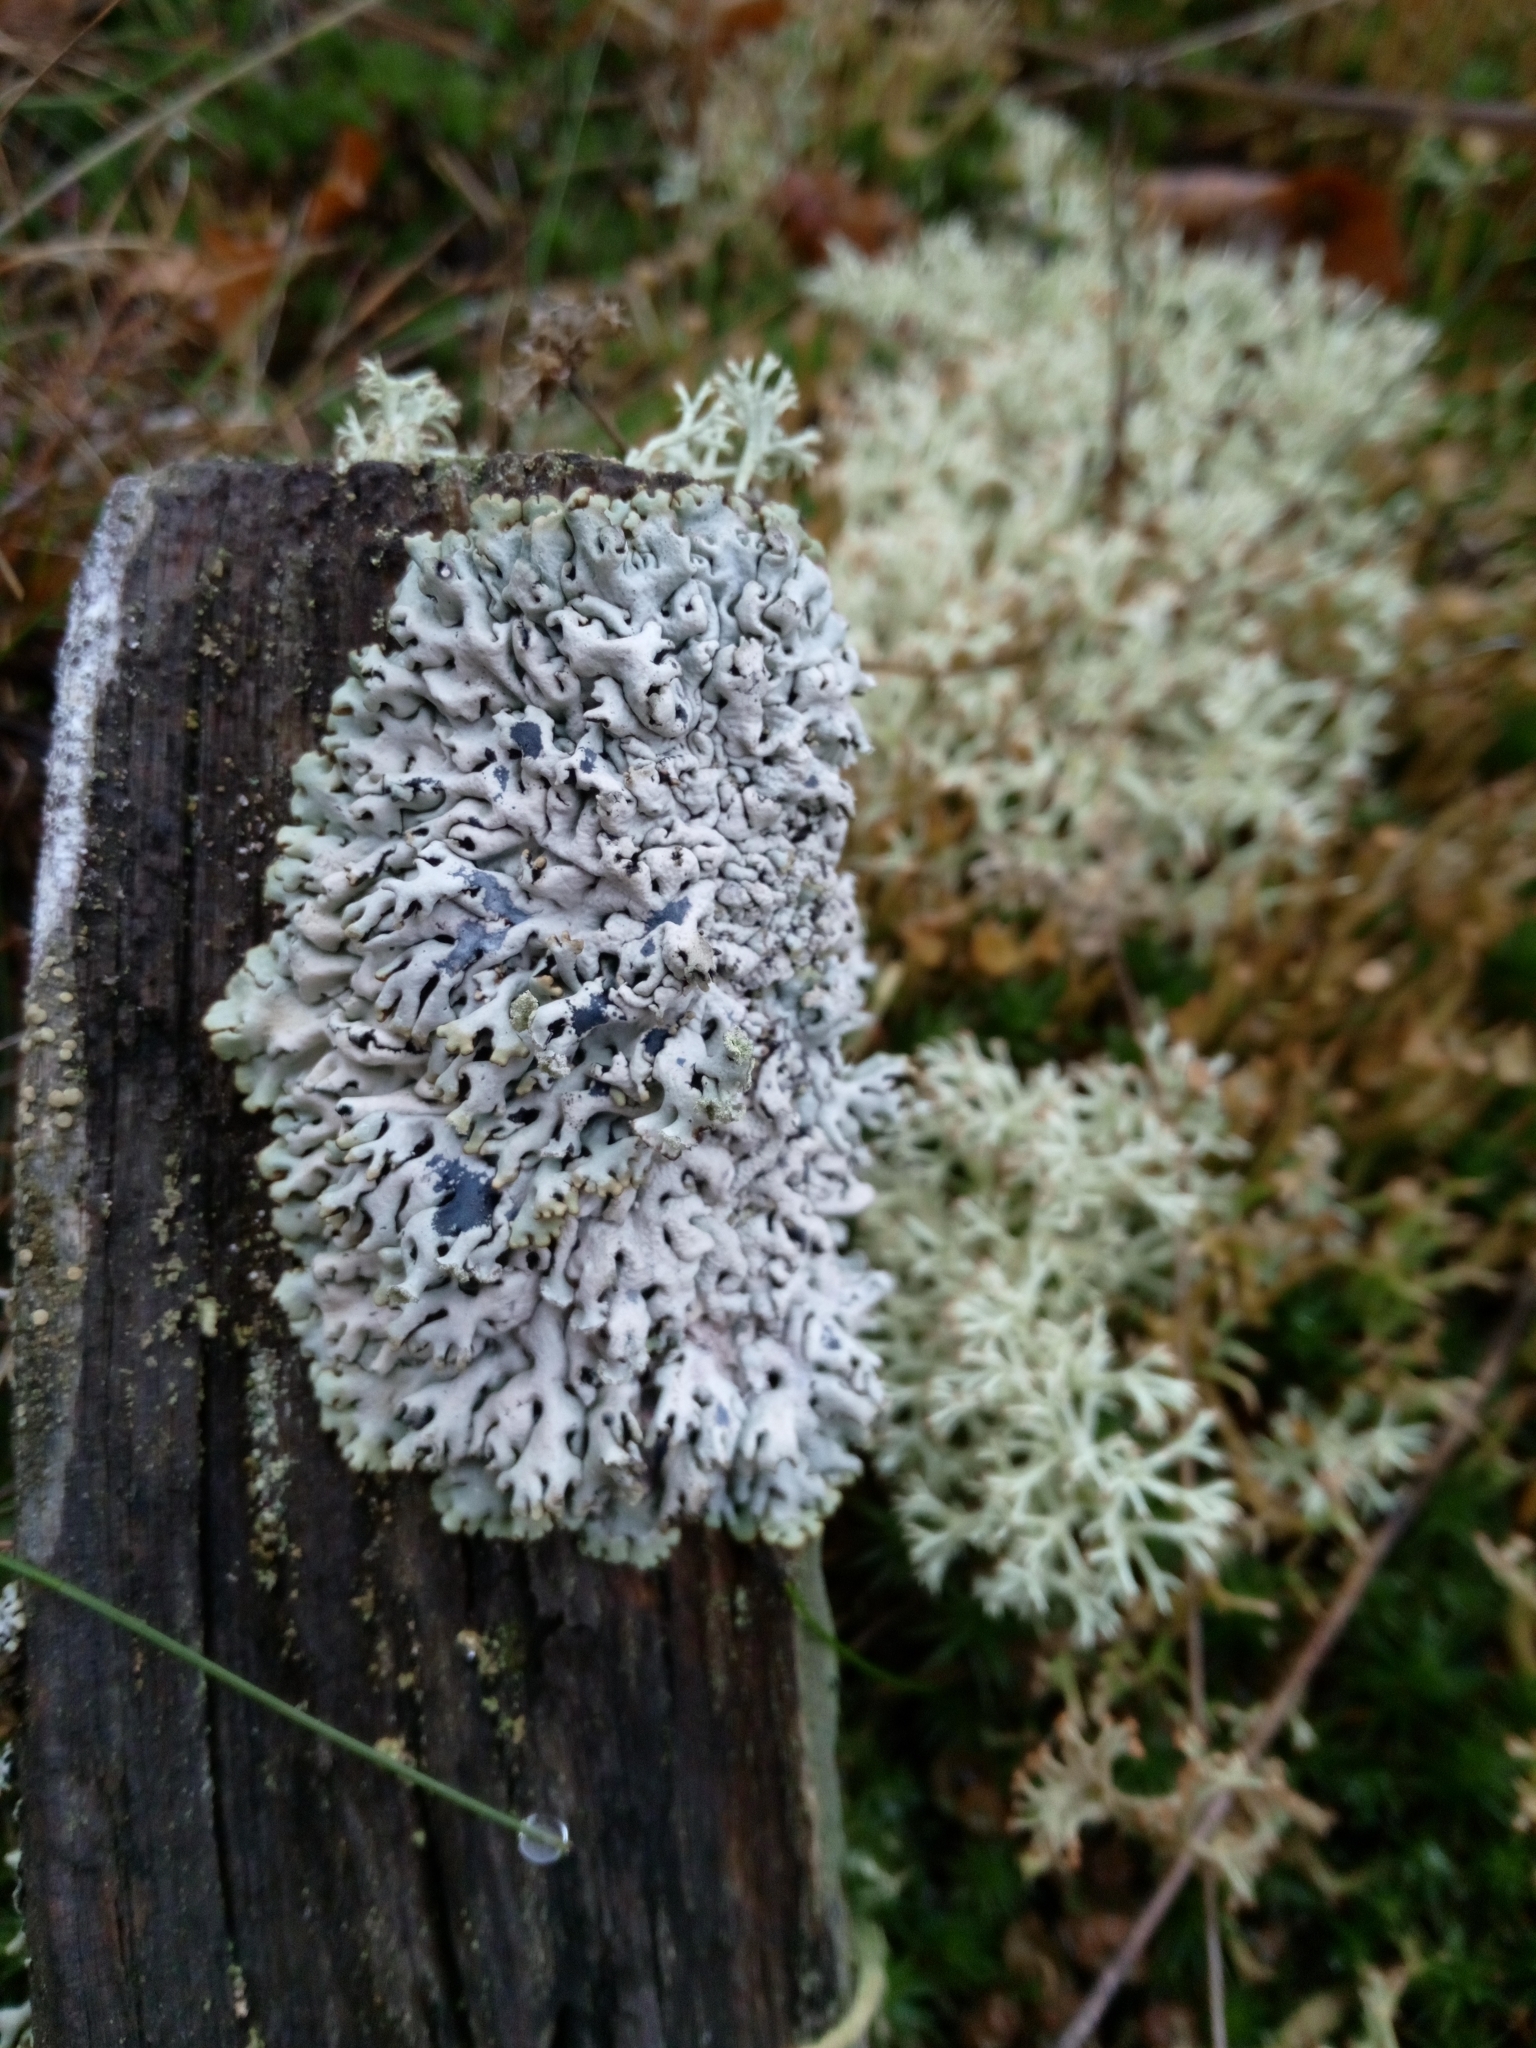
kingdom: Fungi
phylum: Ascomycota
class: Lecanoromycetes
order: Lecanorales
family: Parmeliaceae
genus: Hypogymnia
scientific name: Hypogymnia physodes
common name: Dark crottle
